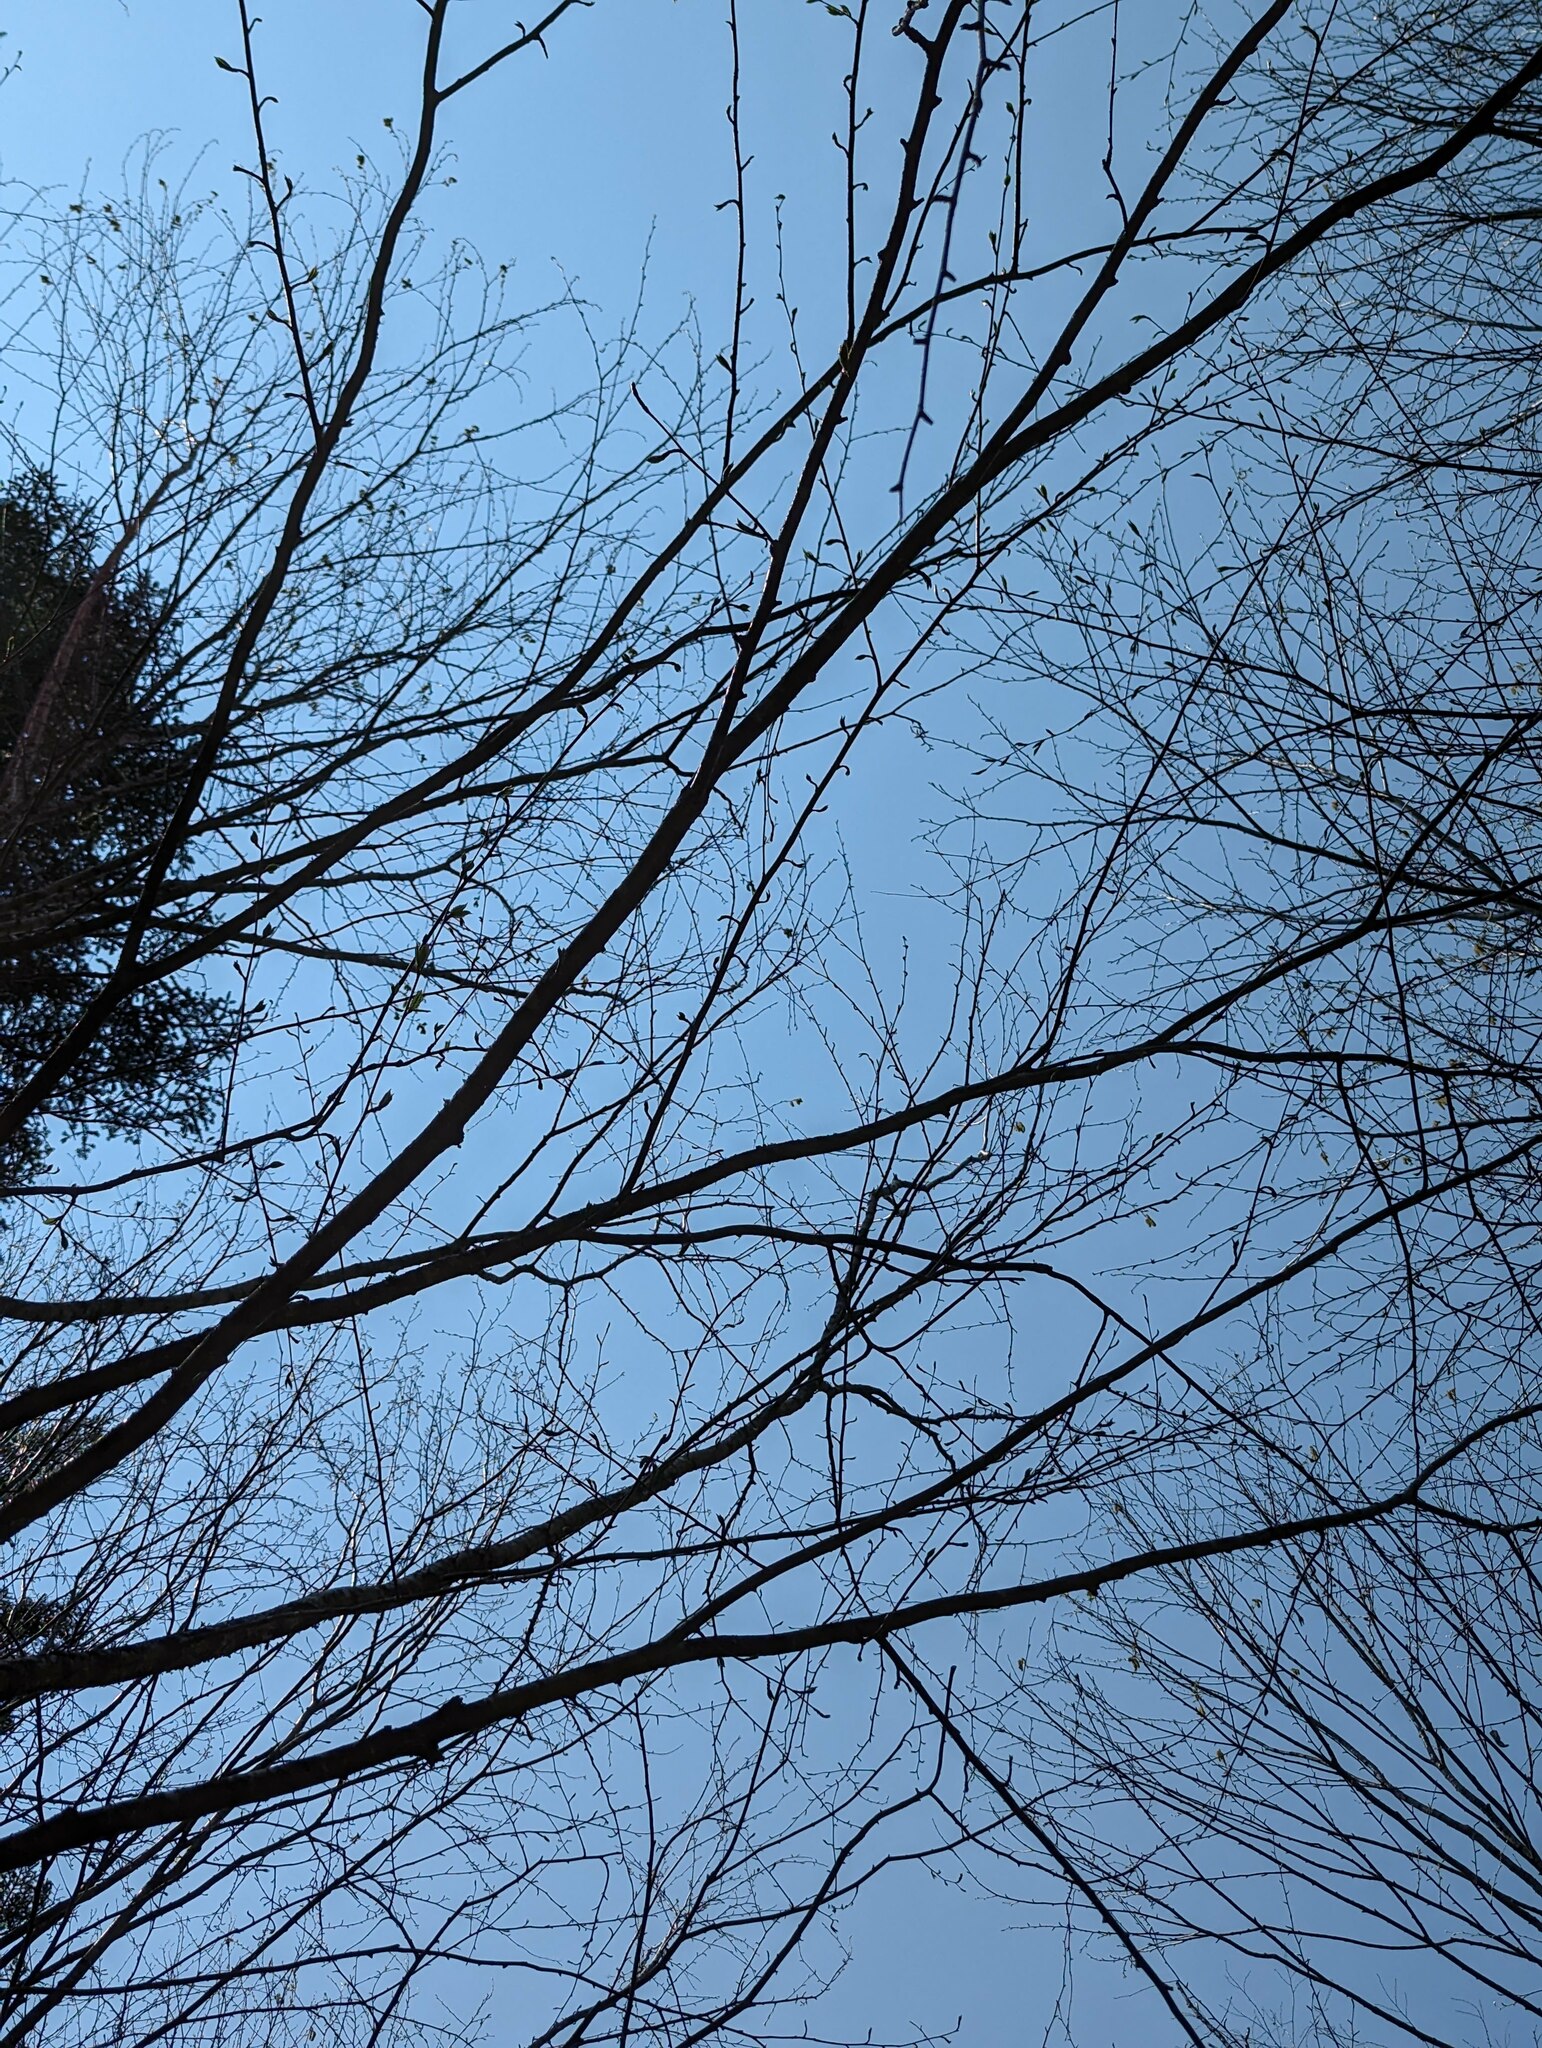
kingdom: Plantae
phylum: Tracheophyta
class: Magnoliopsida
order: Fagales
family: Betulaceae
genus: Betula
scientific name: Betula alleghaniensis
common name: Yellow birch
